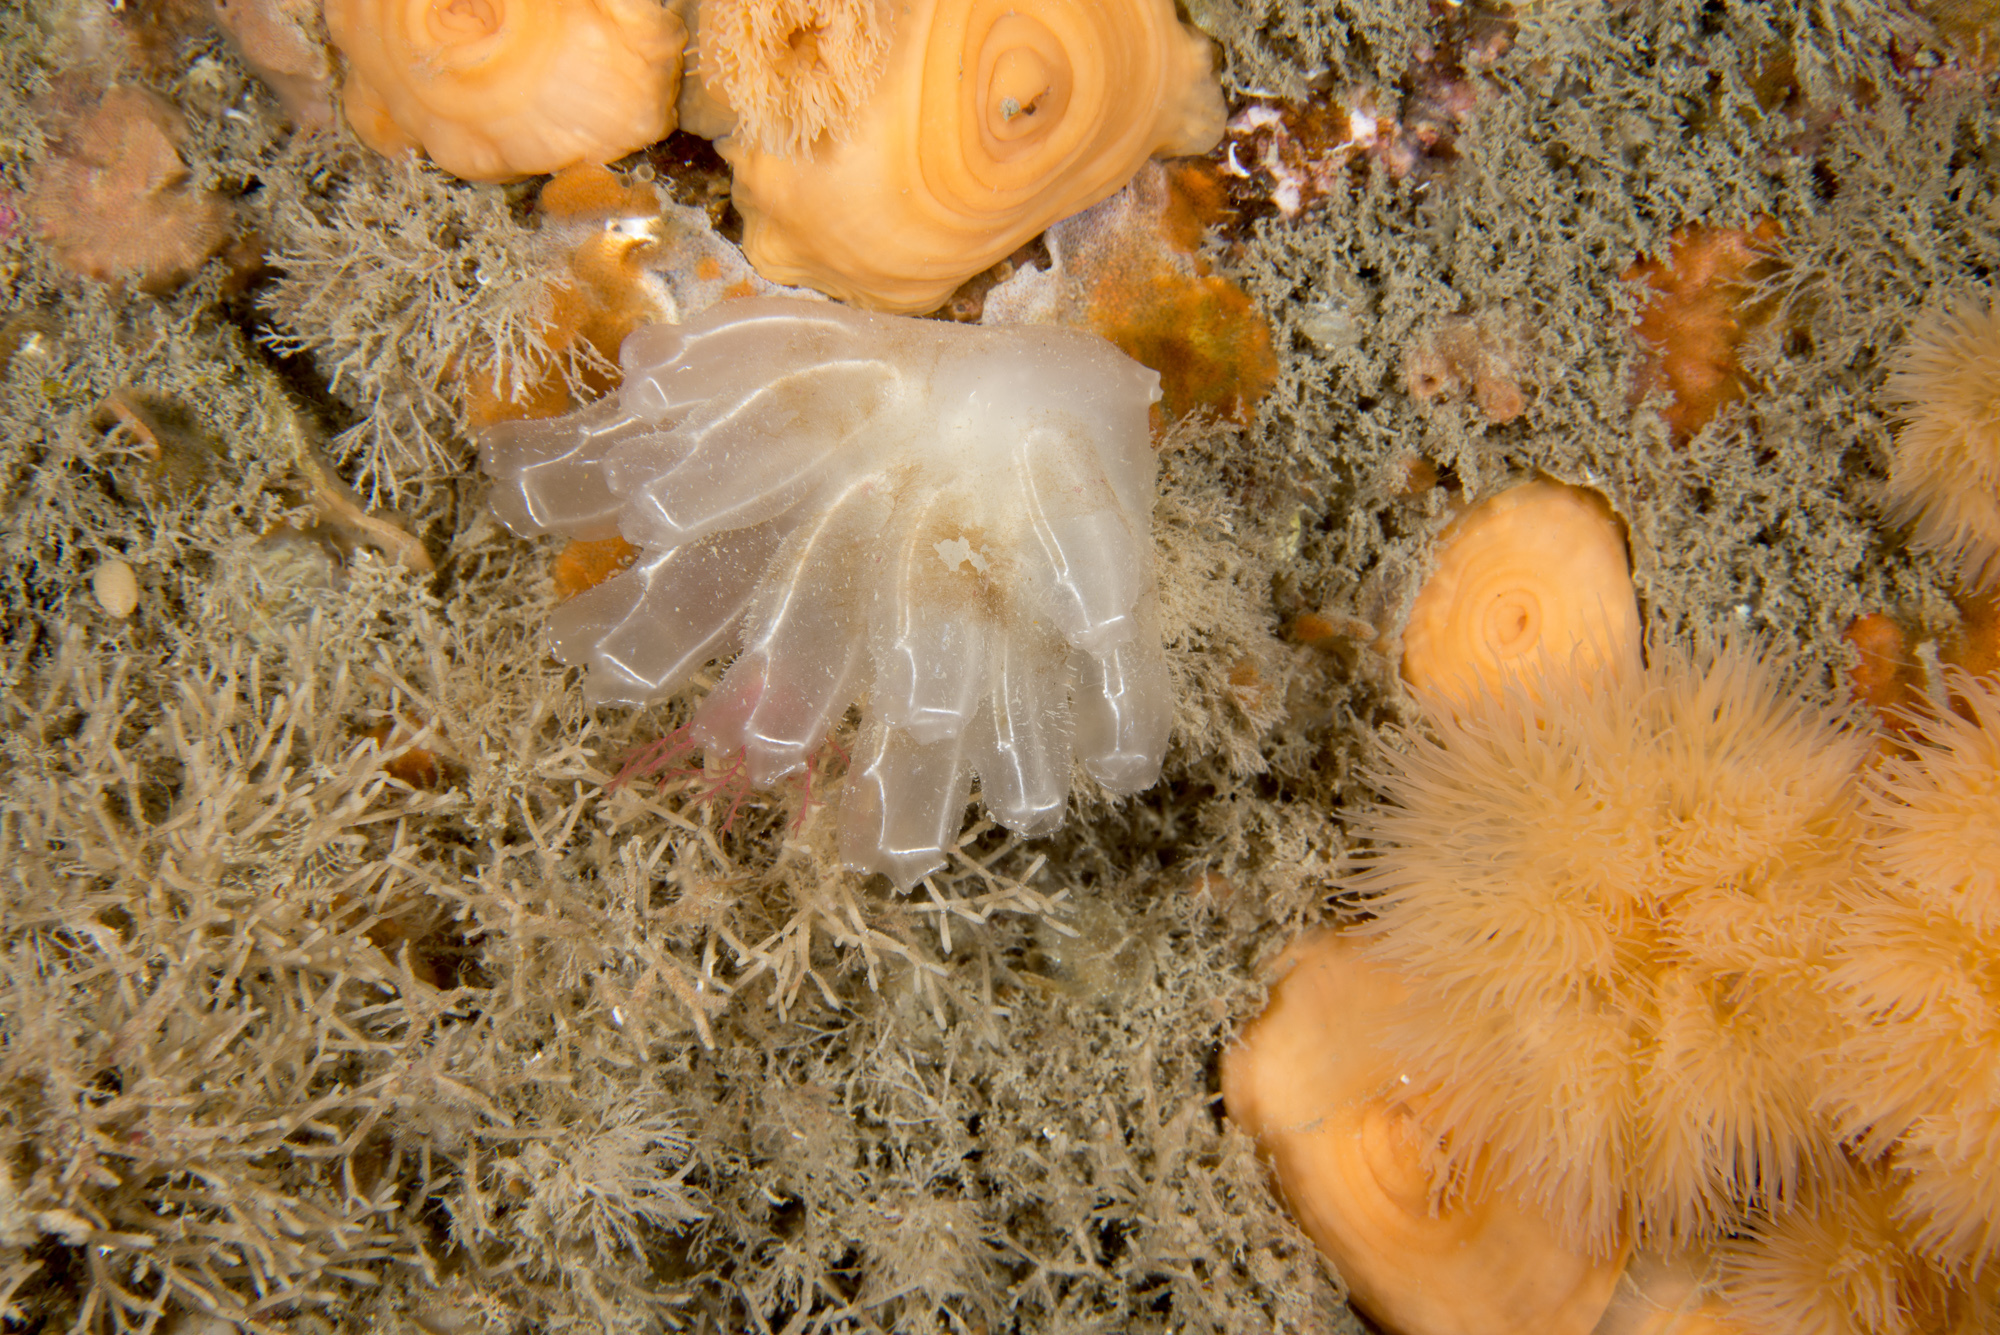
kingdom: Animalia
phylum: Chordata
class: Ascidiacea
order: Aplousobranchia
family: Diazonidae
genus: Diazona
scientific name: Diazona violacea
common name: Football ascidian
